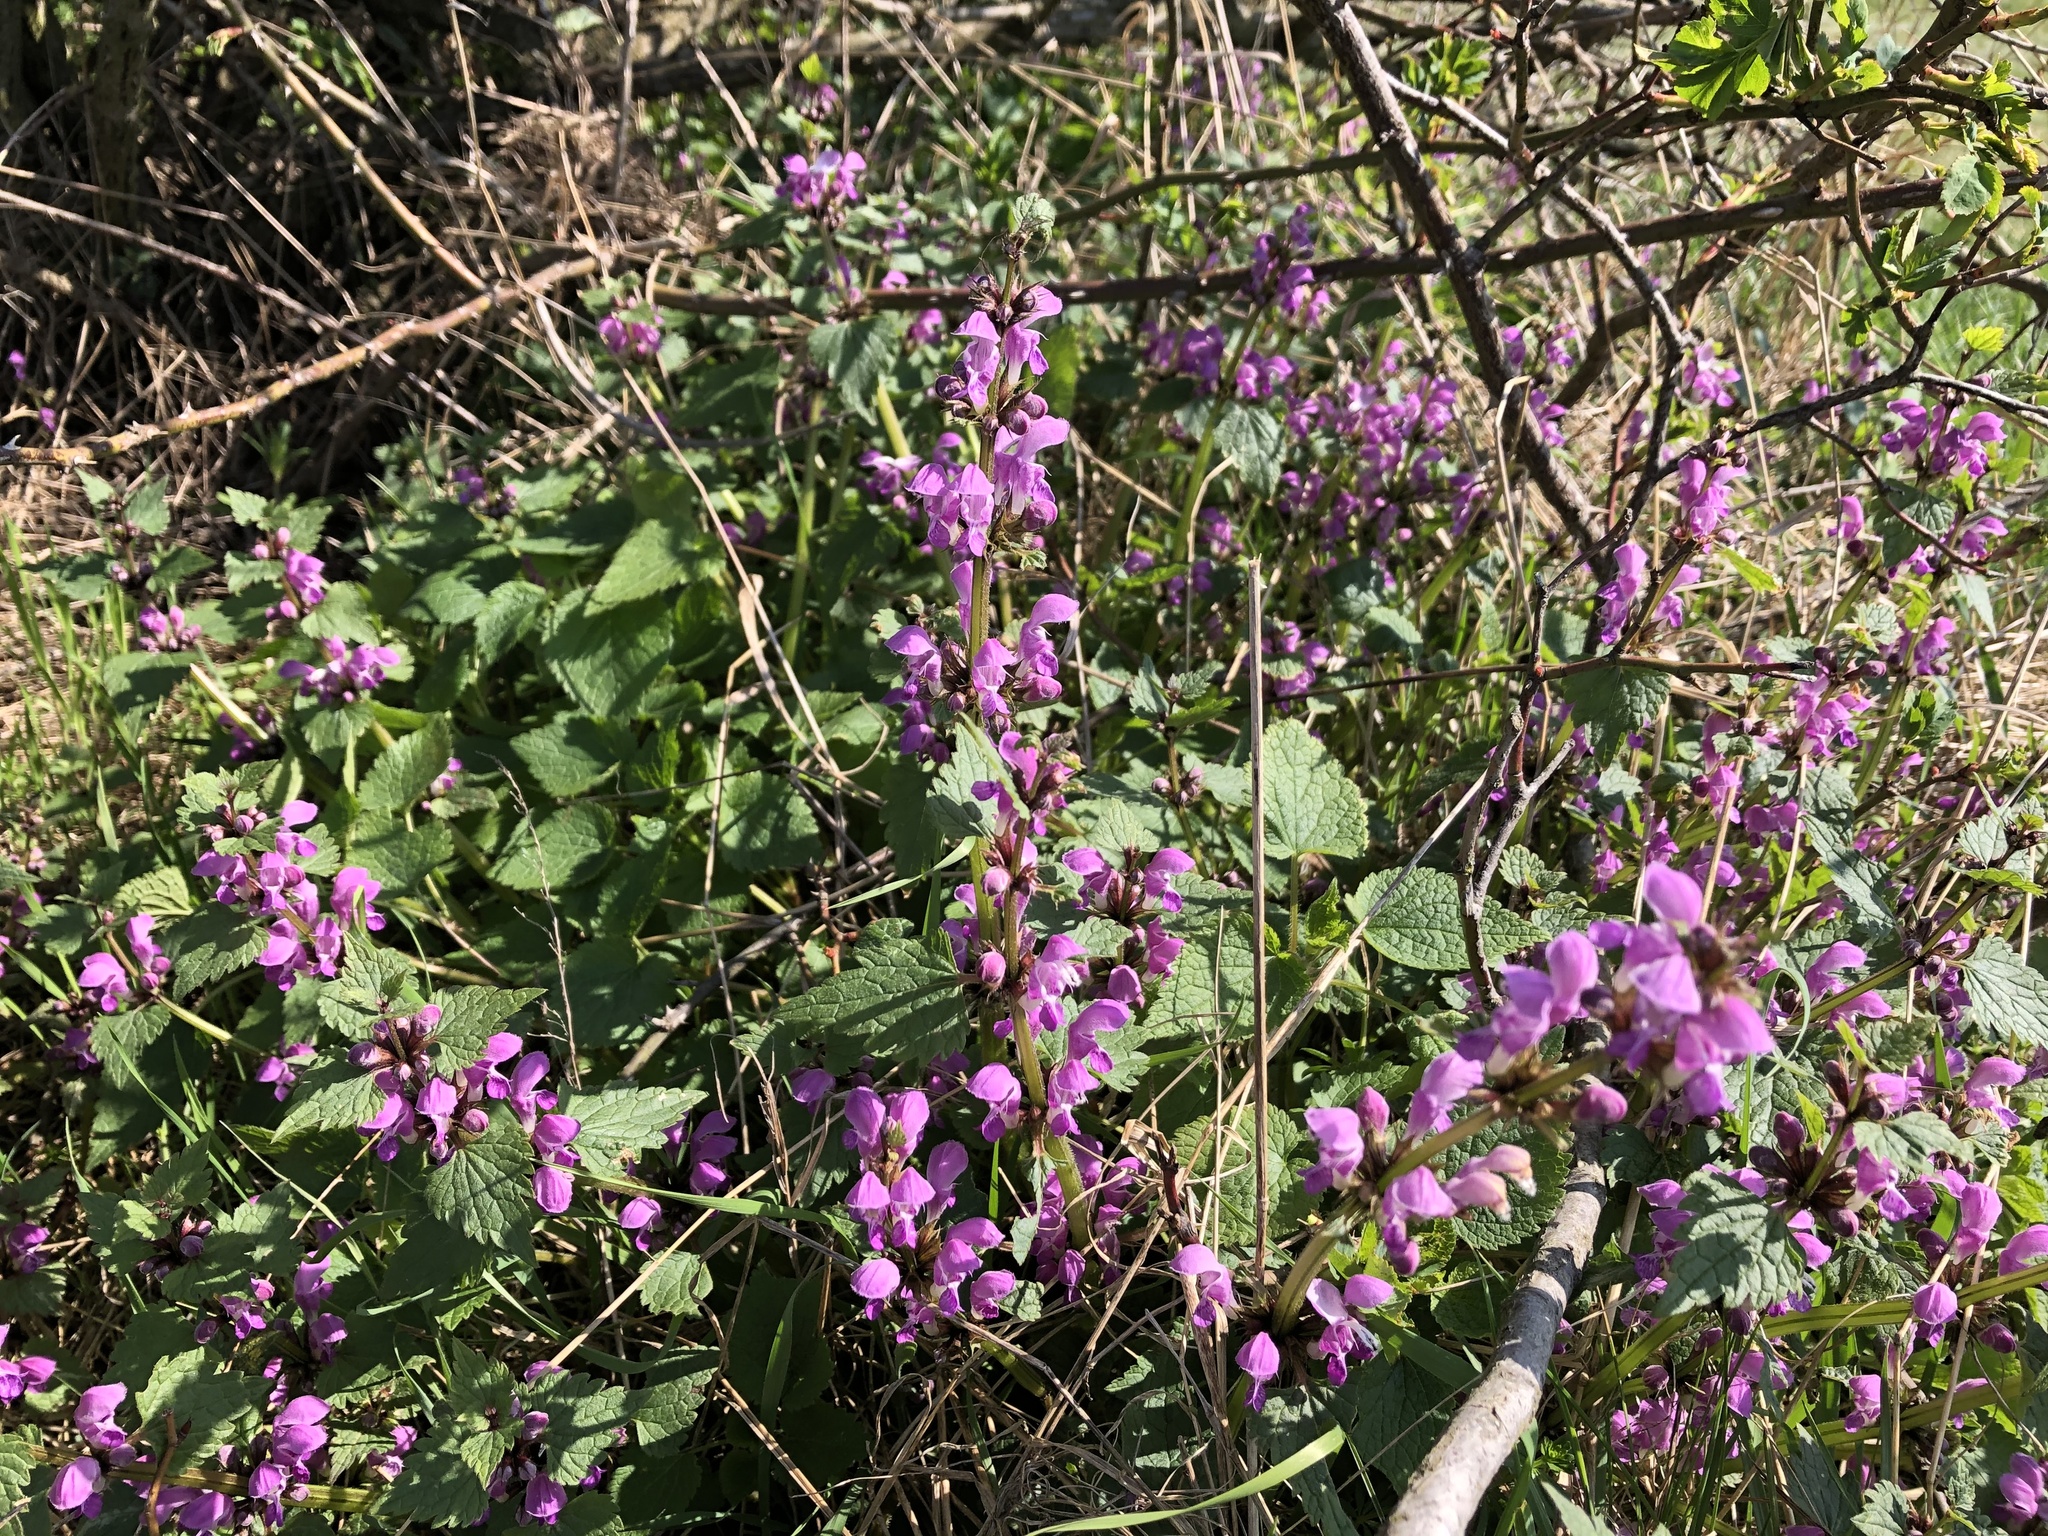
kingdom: Plantae
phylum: Tracheophyta
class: Magnoliopsida
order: Lamiales
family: Lamiaceae
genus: Lamium
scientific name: Lamium maculatum
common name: Spotted dead-nettle
